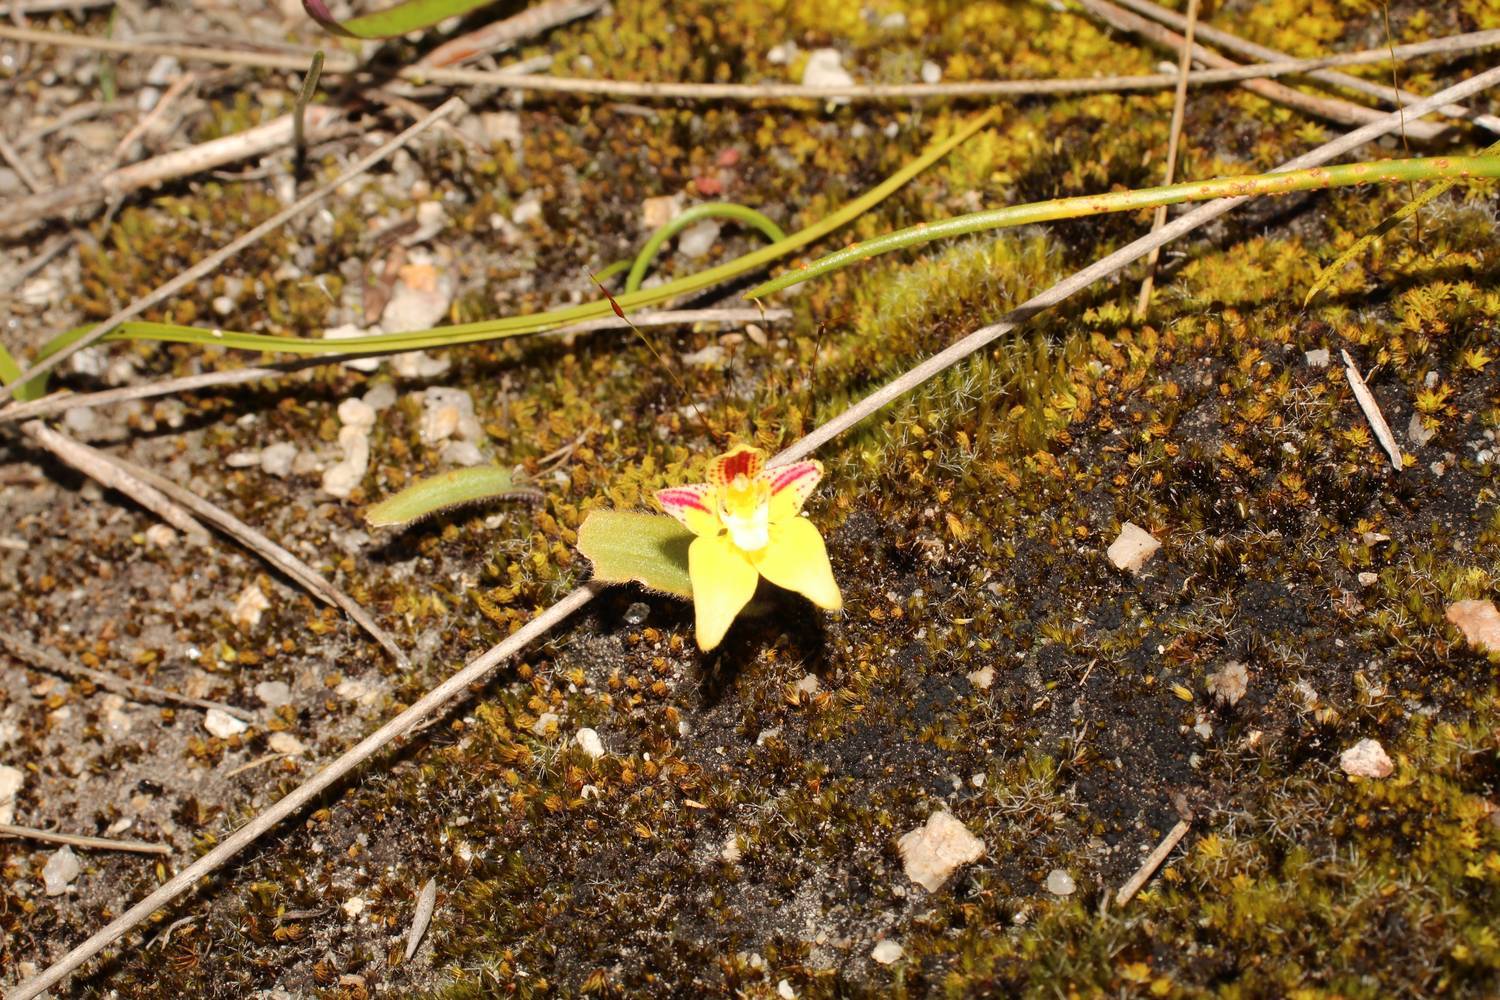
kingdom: Plantae
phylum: Tracheophyta
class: Liliopsida
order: Asparagales
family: Orchidaceae
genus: Caladenia
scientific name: Caladenia flava
